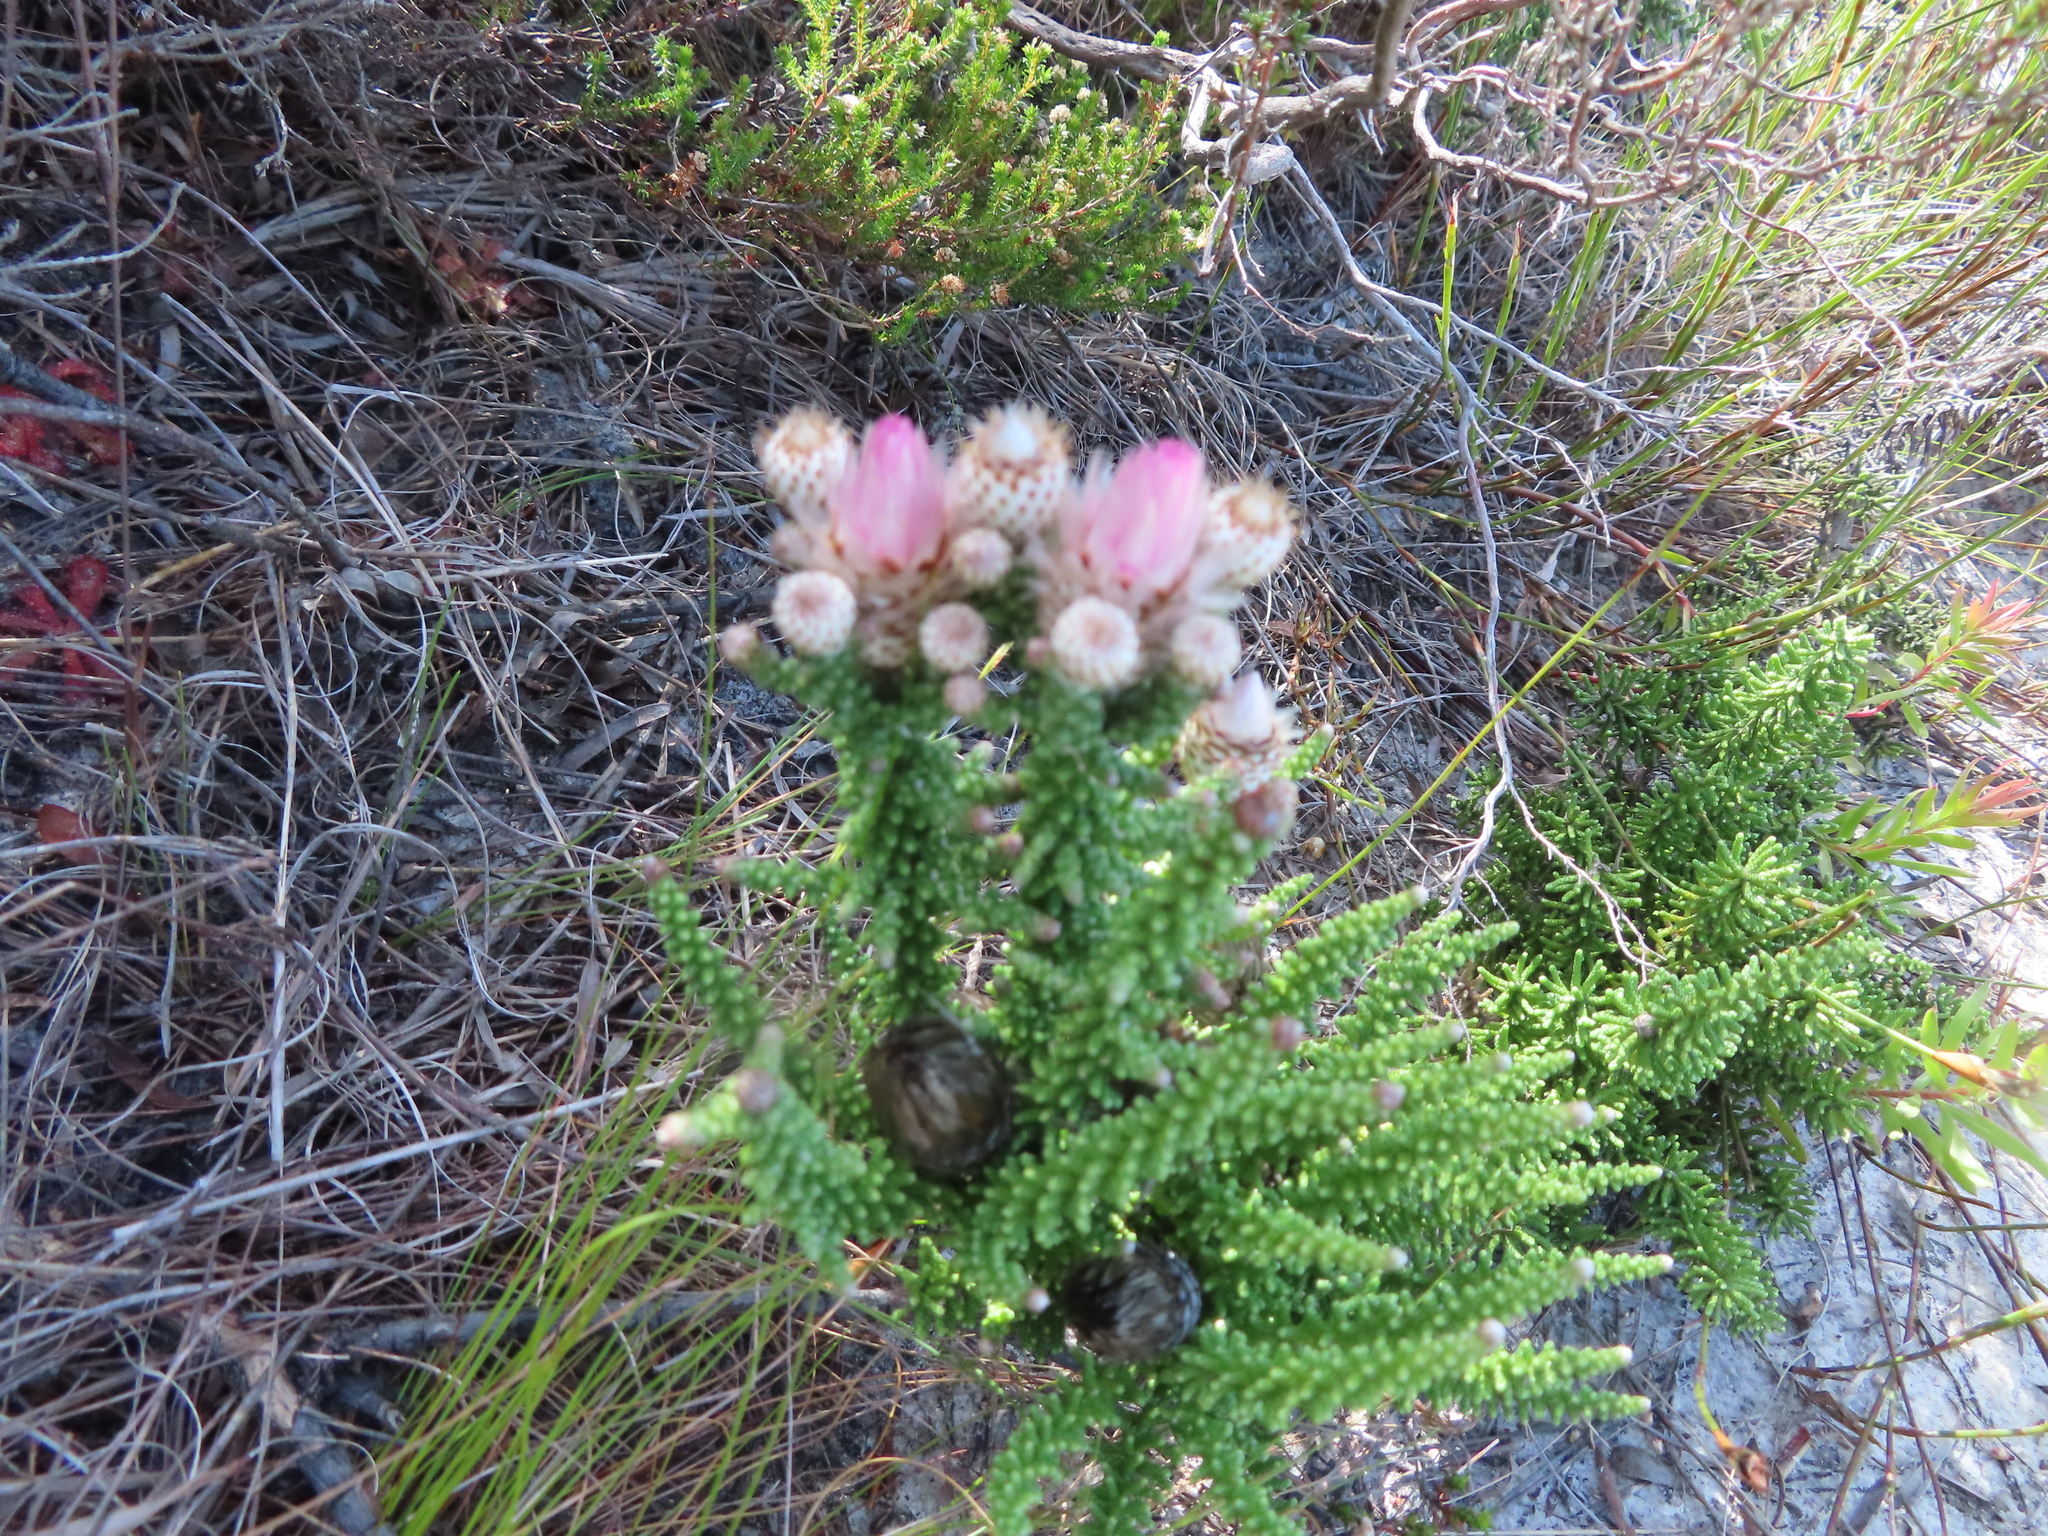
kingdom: Plantae
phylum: Tracheophyta
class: Magnoliopsida
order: Asterales
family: Asteraceae
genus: Phaenocoma
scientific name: Phaenocoma prolifera
